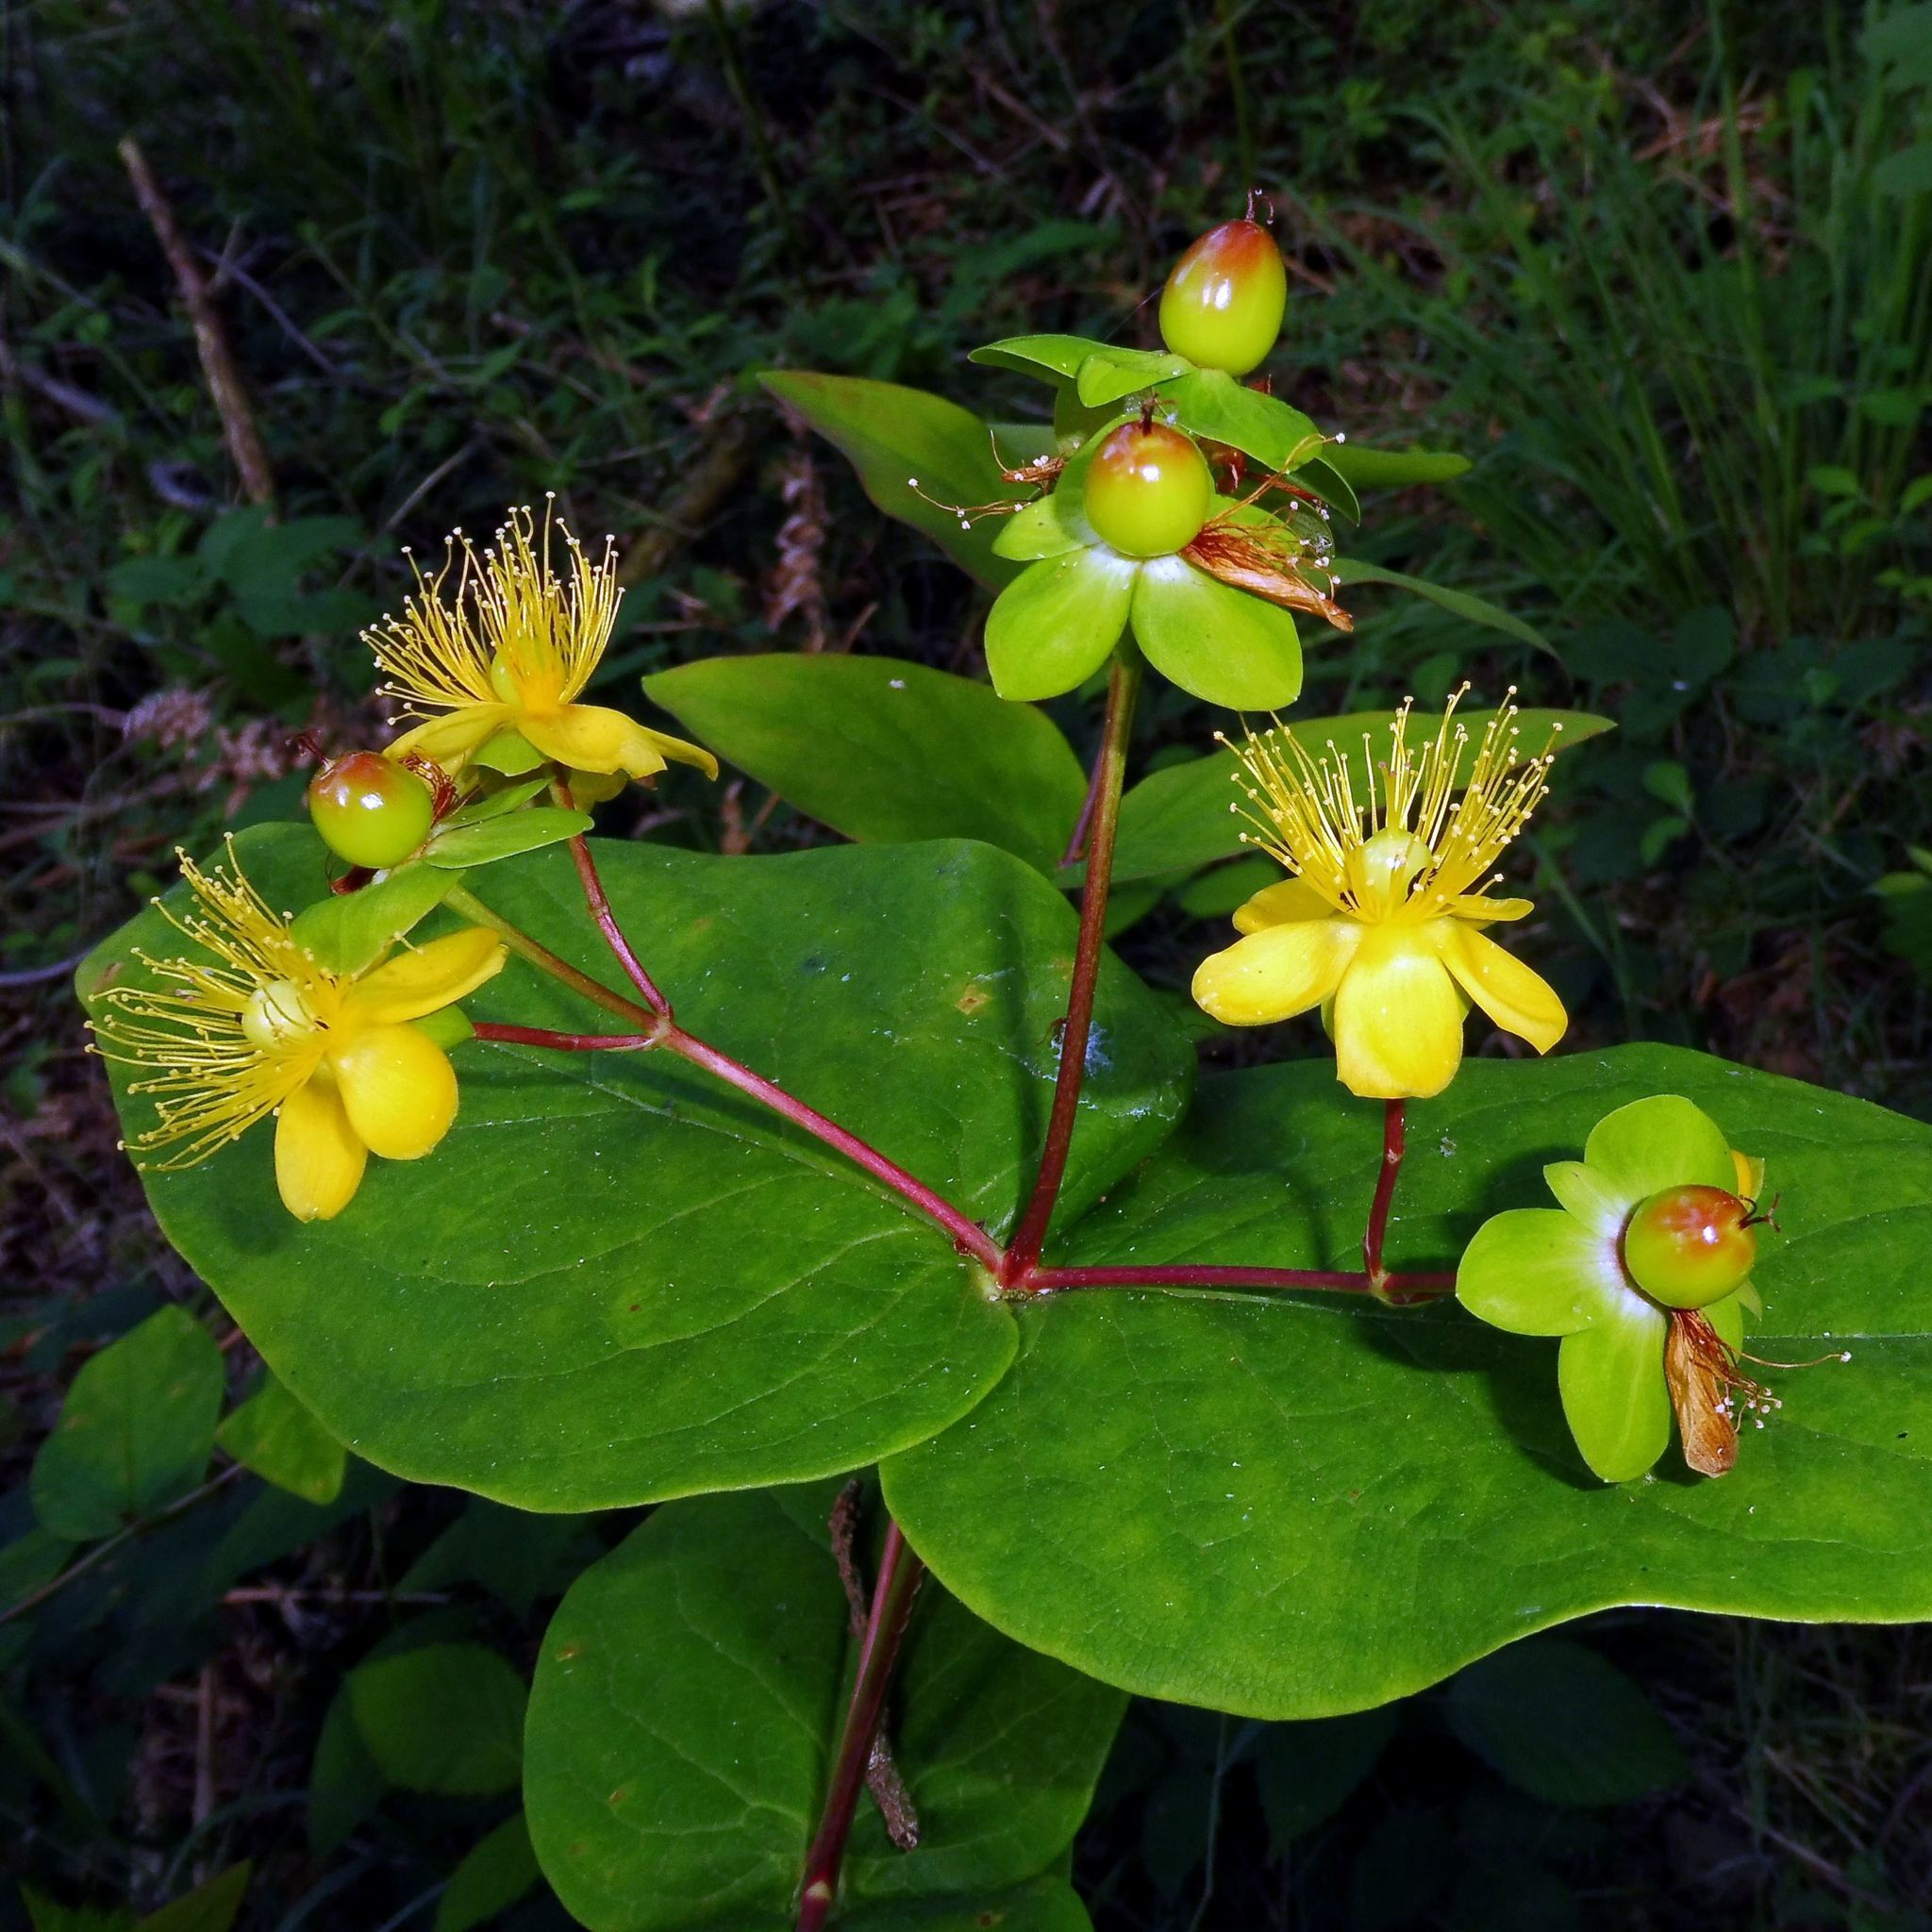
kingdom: Plantae
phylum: Tracheophyta
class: Magnoliopsida
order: Malpighiales
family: Hypericaceae
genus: Hypericum
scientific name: Hypericum androsaemum
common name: Sweet-amber
